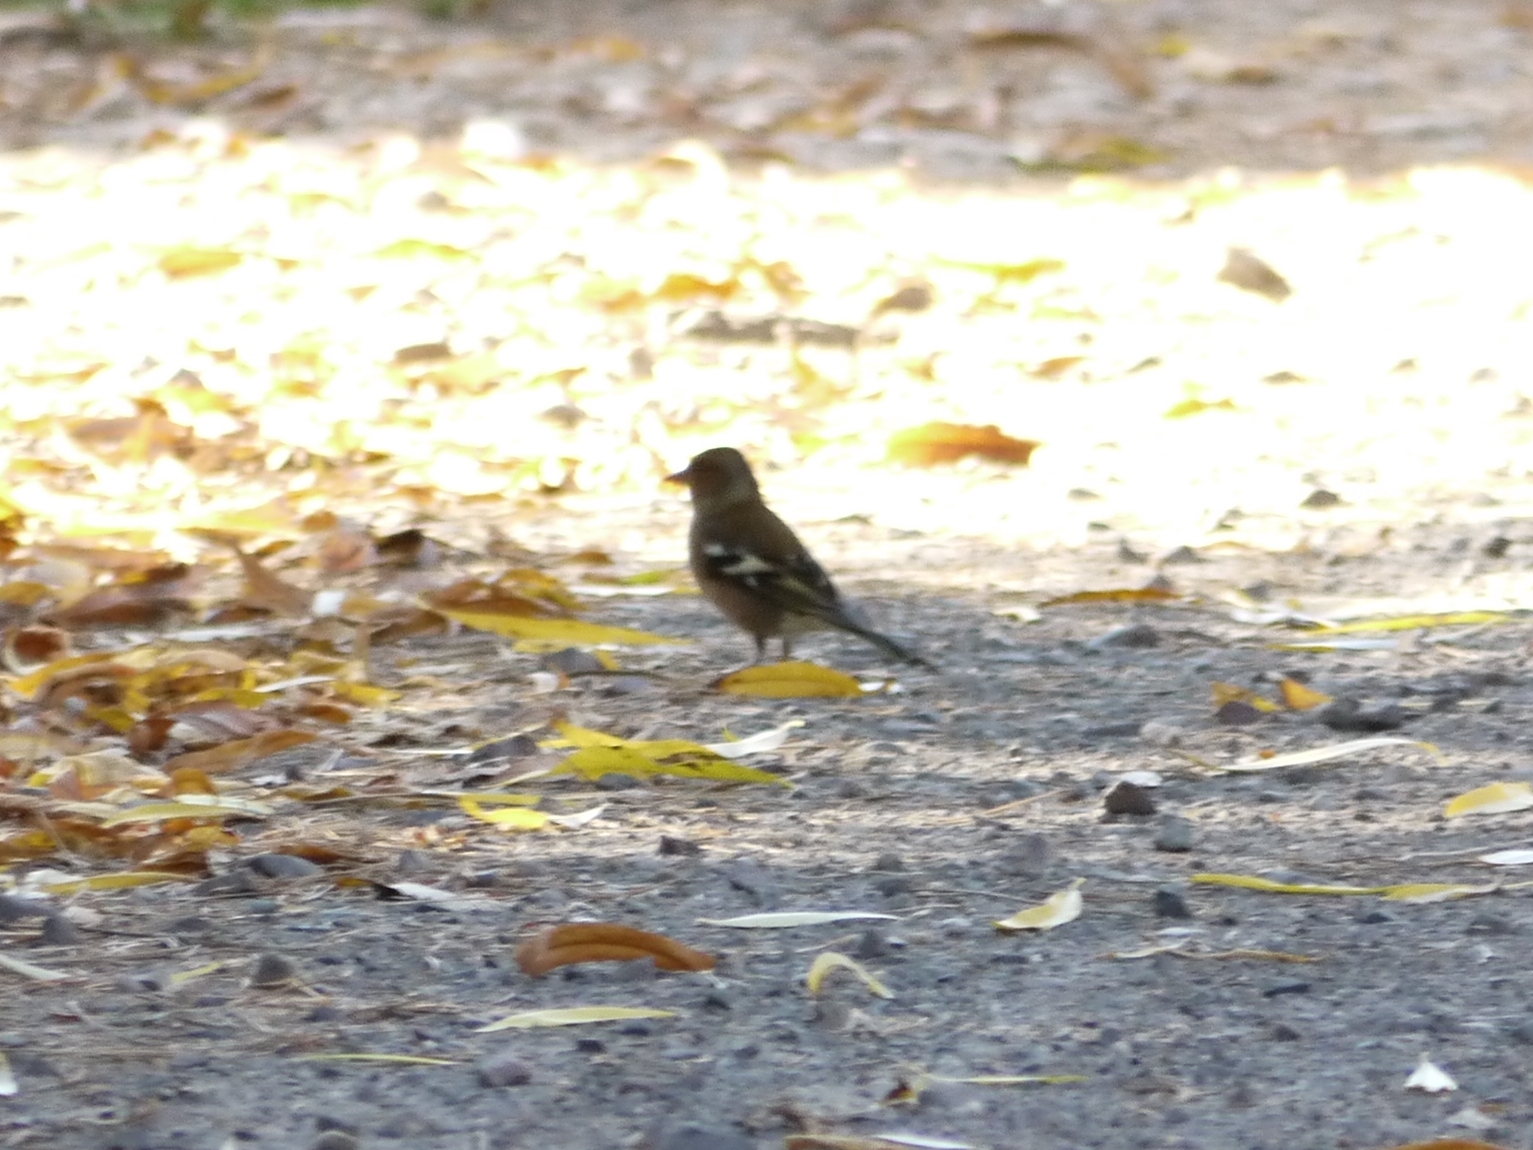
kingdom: Animalia
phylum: Chordata
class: Aves
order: Passeriformes
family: Fringillidae
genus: Fringilla
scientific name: Fringilla coelebs
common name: Common chaffinch
